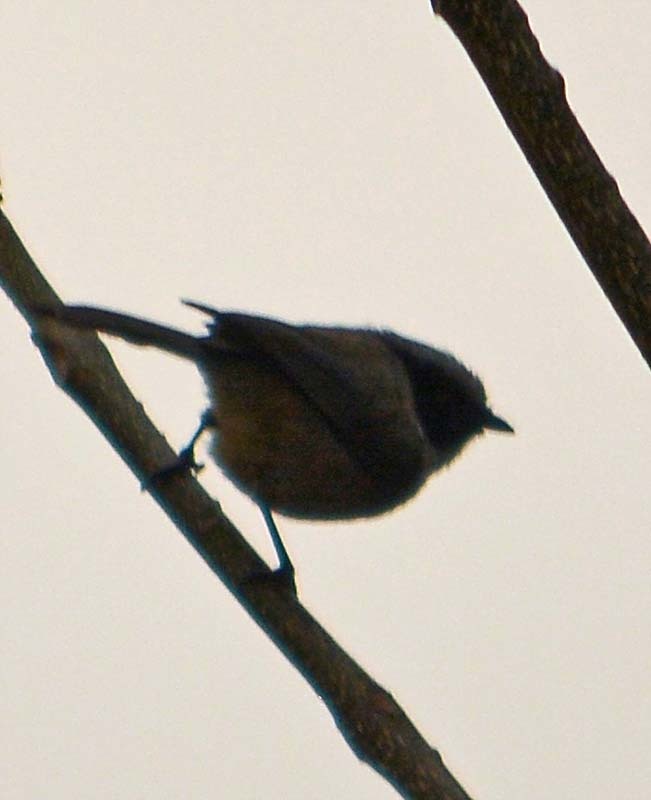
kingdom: Animalia
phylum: Chordata
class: Aves
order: Passeriformes
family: Aegithalidae
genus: Psaltriparus
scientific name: Psaltriparus minimus
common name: American bushtit
